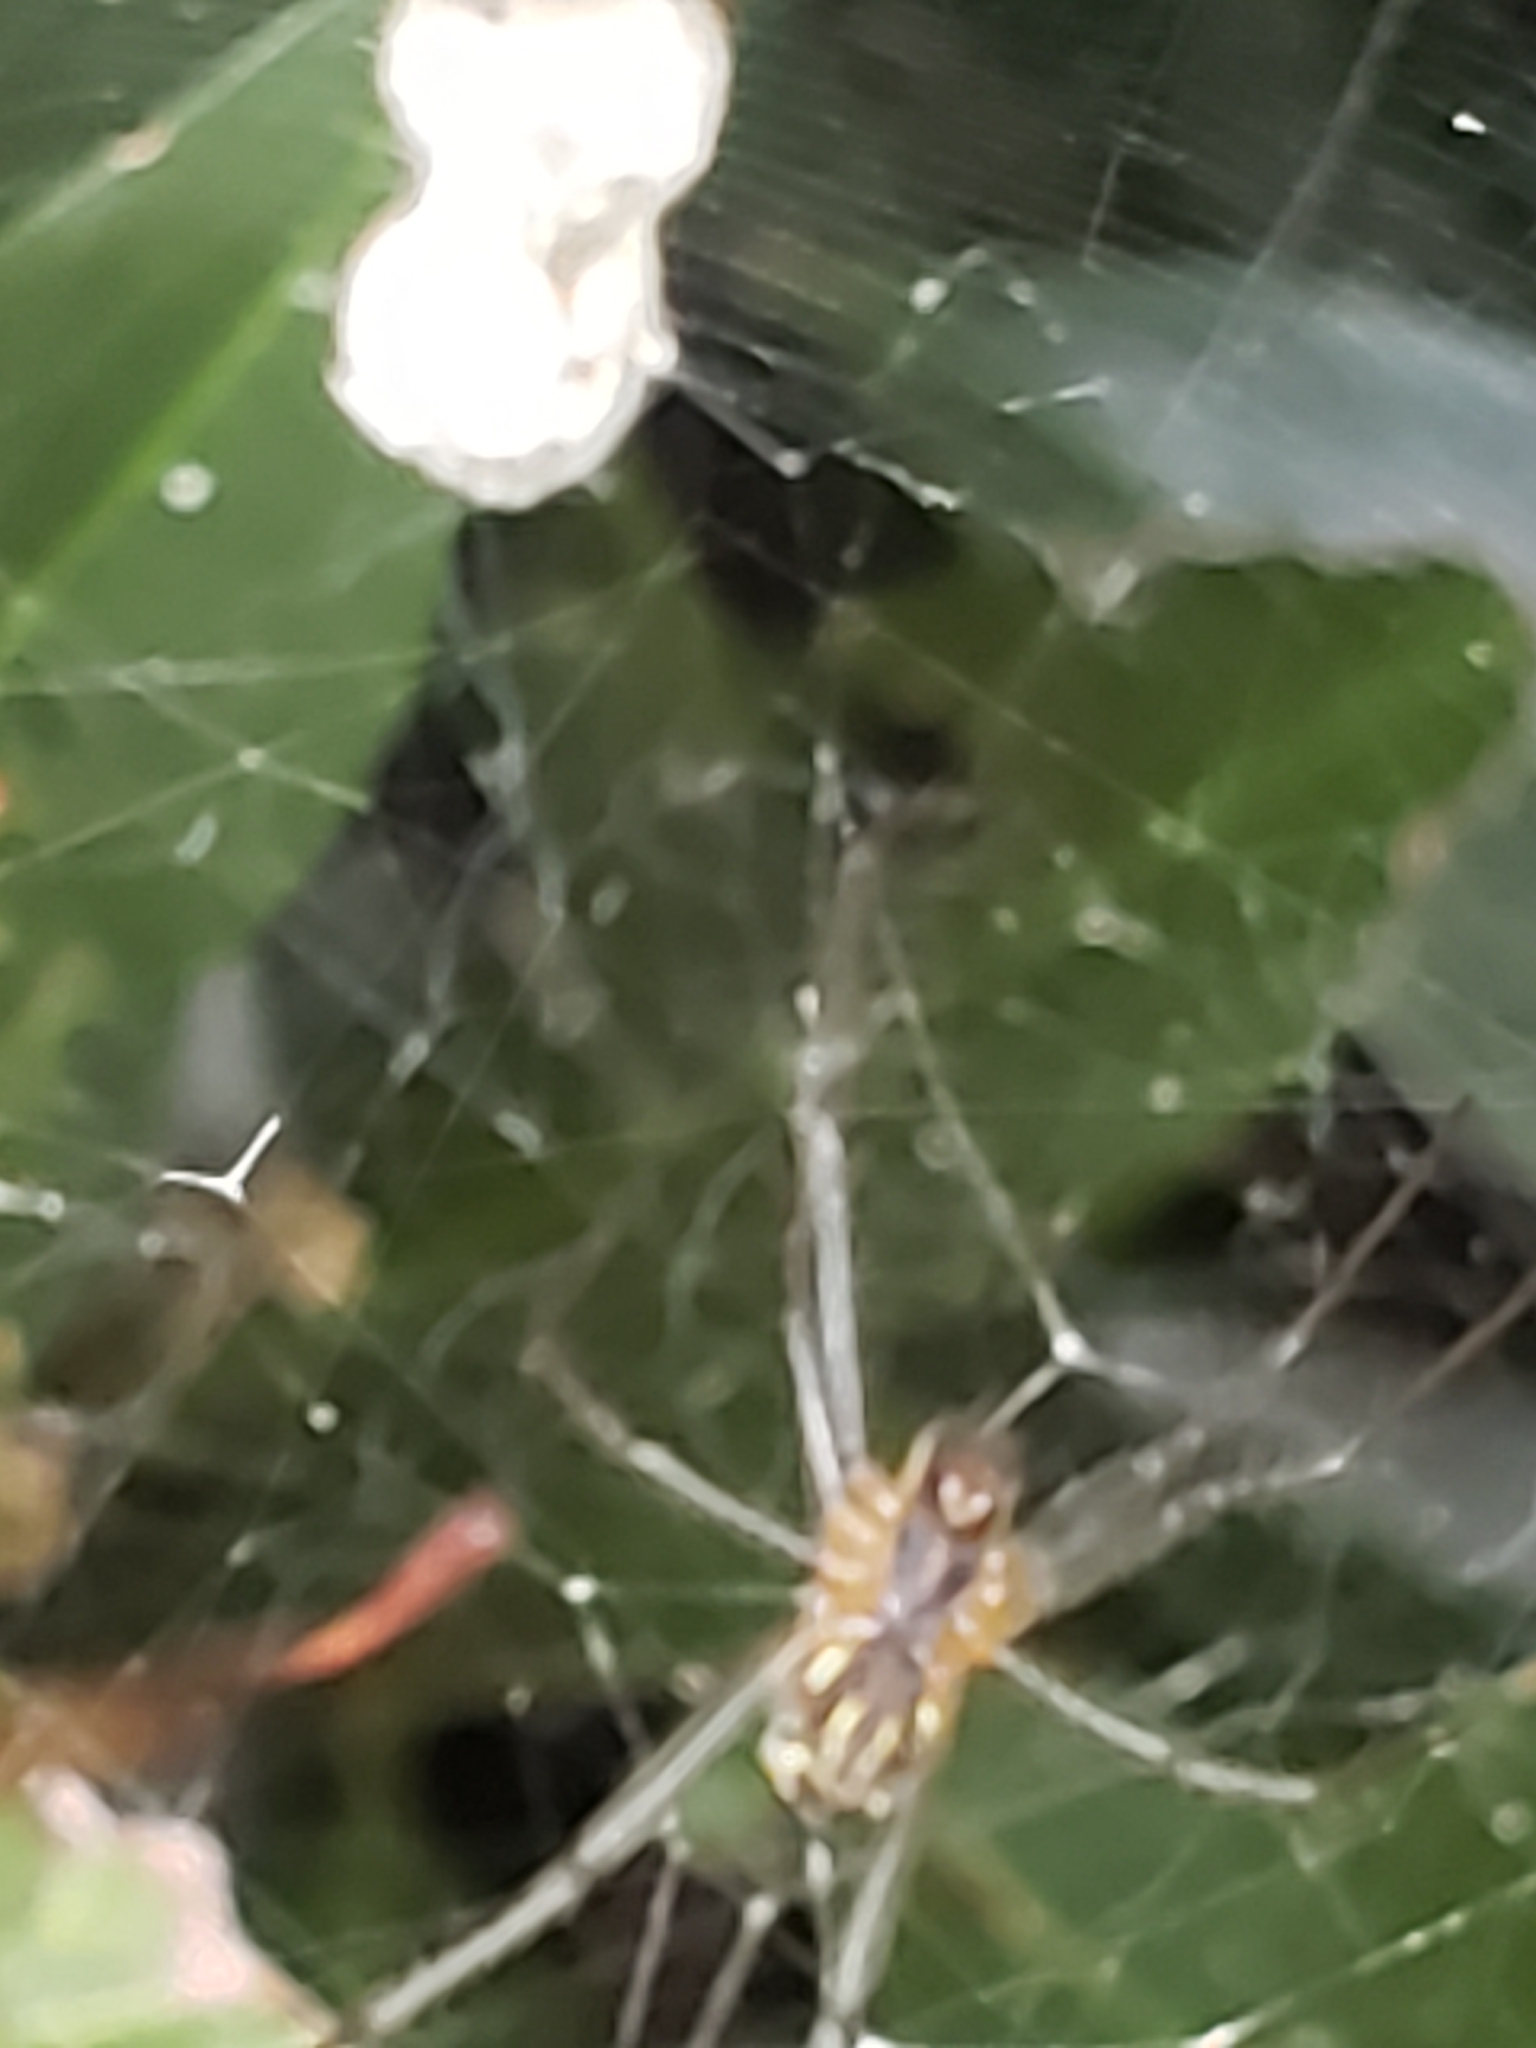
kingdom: Animalia
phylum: Arthropoda
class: Arachnida
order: Araneae
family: Araneidae
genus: Mecynogea
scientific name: Mecynogea lemniscata
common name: Orb weavers
